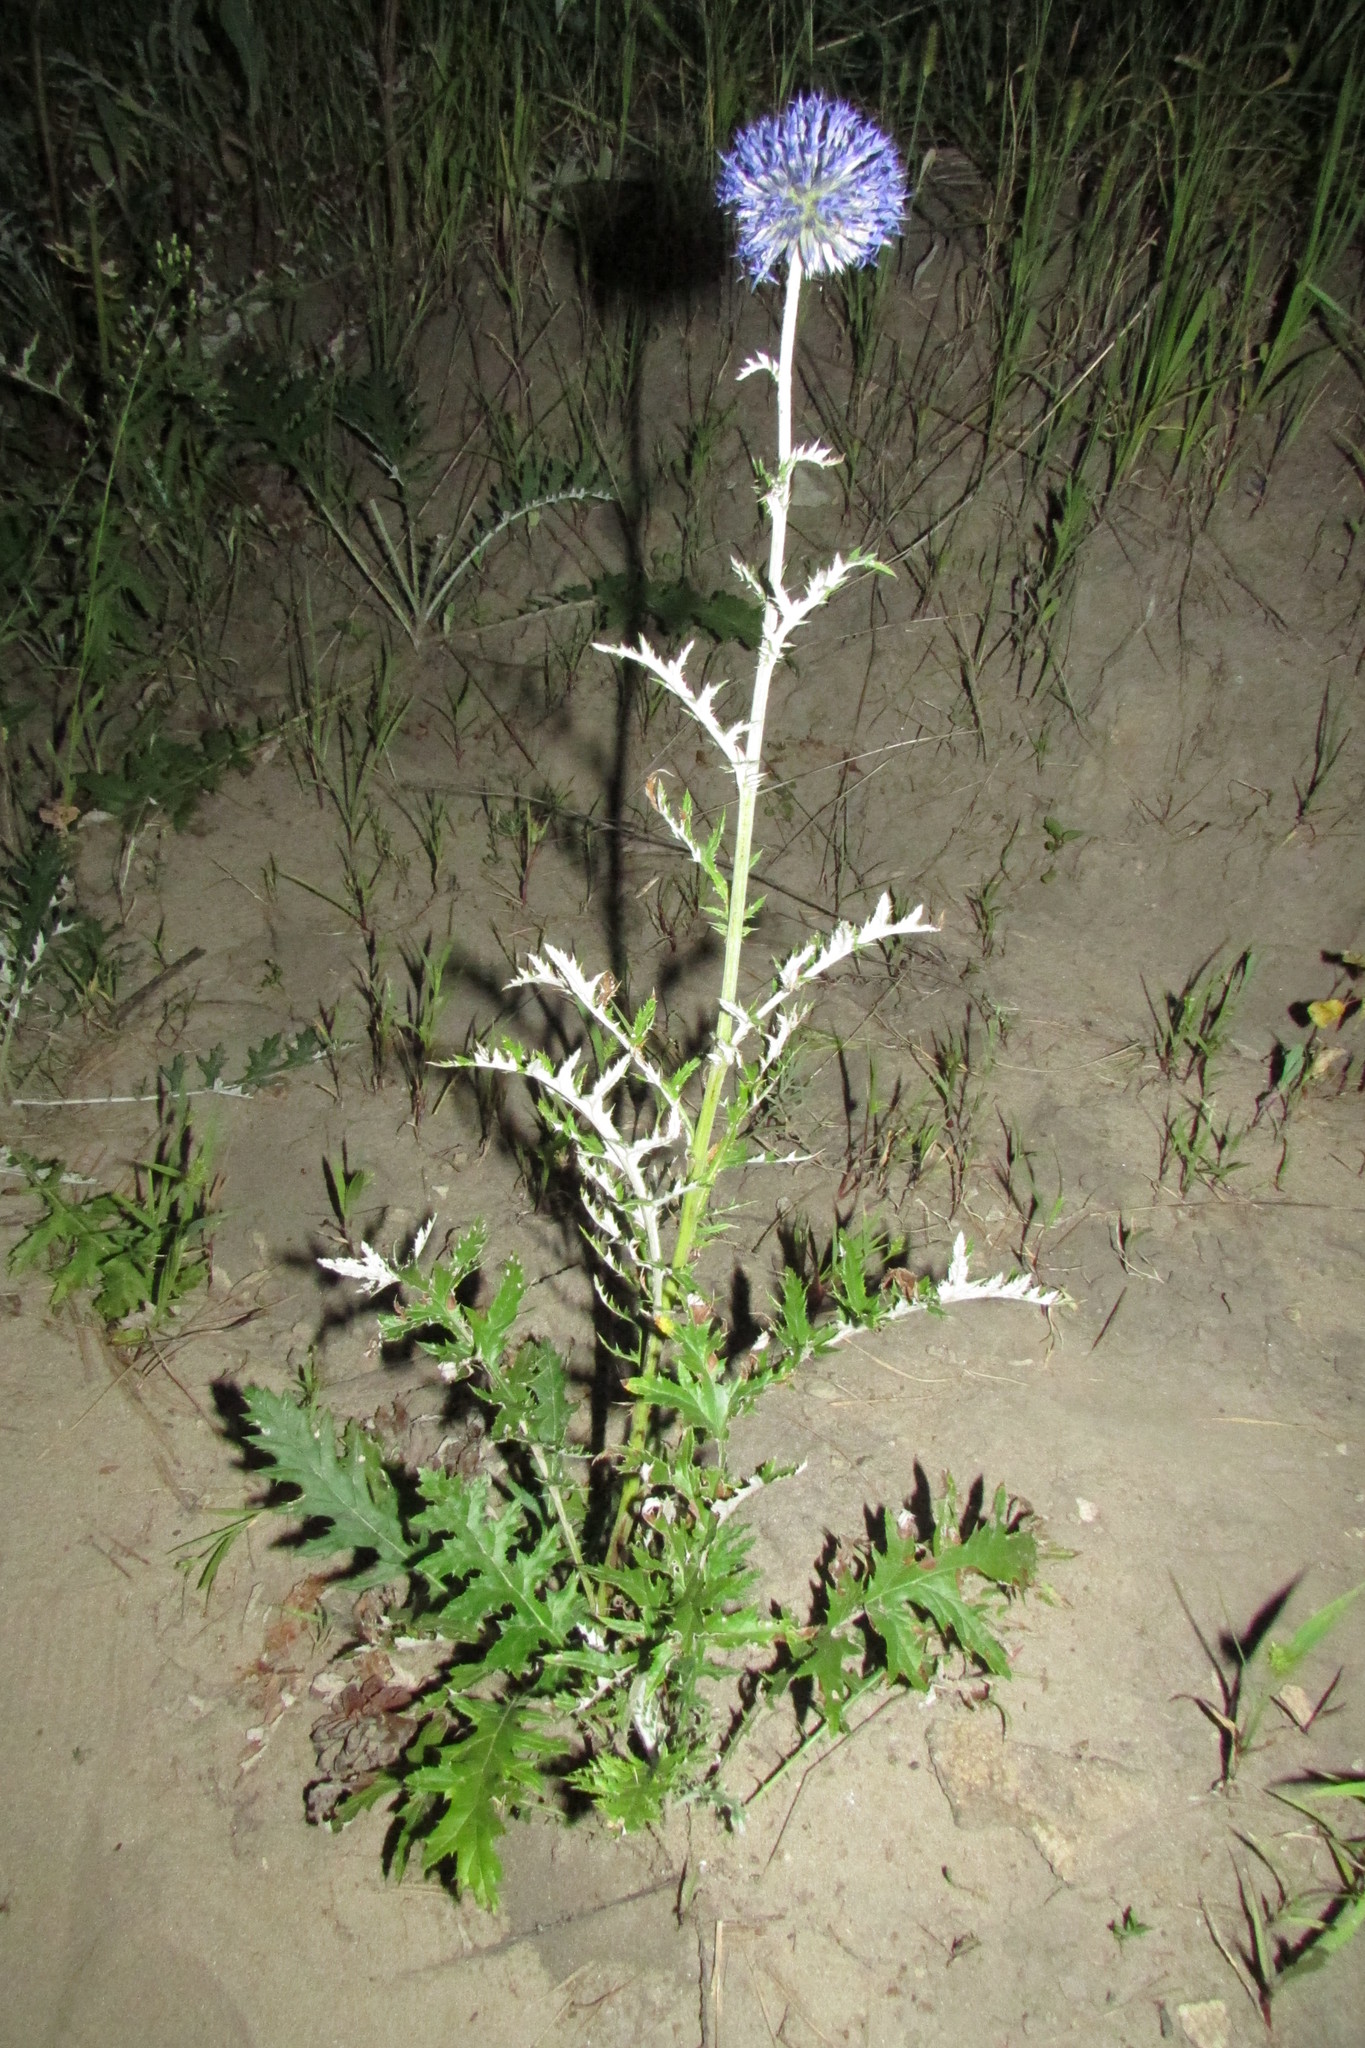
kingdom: Plantae
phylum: Tracheophyta
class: Magnoliopsida
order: Asterales
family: Asteraceae
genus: Echinops
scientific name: Echinops ritro
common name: Globe thistle
